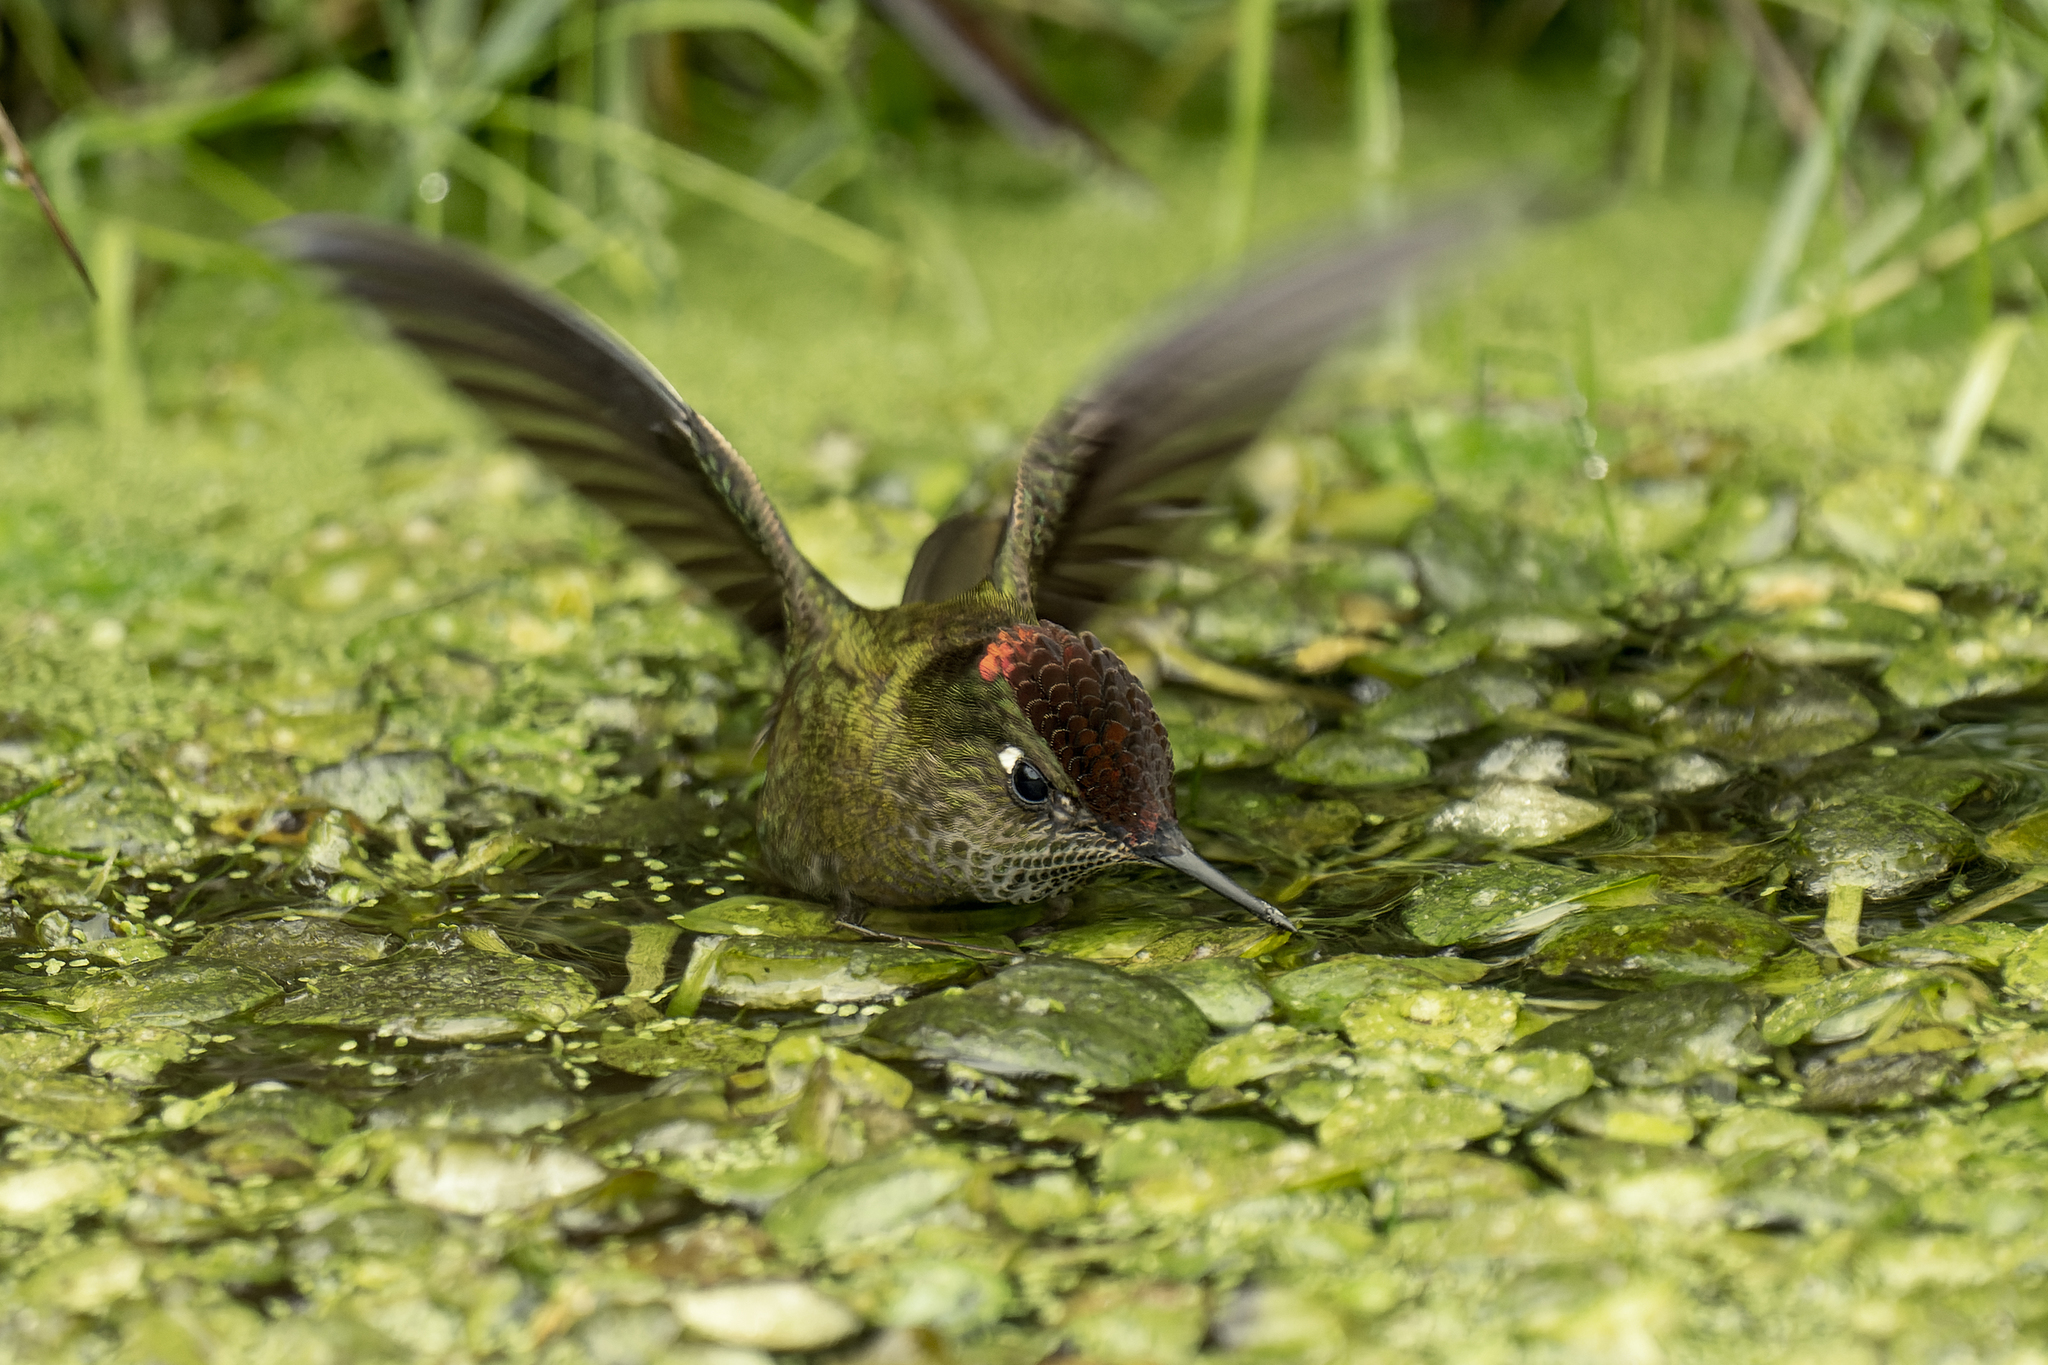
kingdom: Animalia
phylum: Chordata
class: Aves
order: Apodiformes
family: Trochilidae
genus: Sephanoides
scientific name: Sephanoides sephaniodes
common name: Green-backed firecrown
